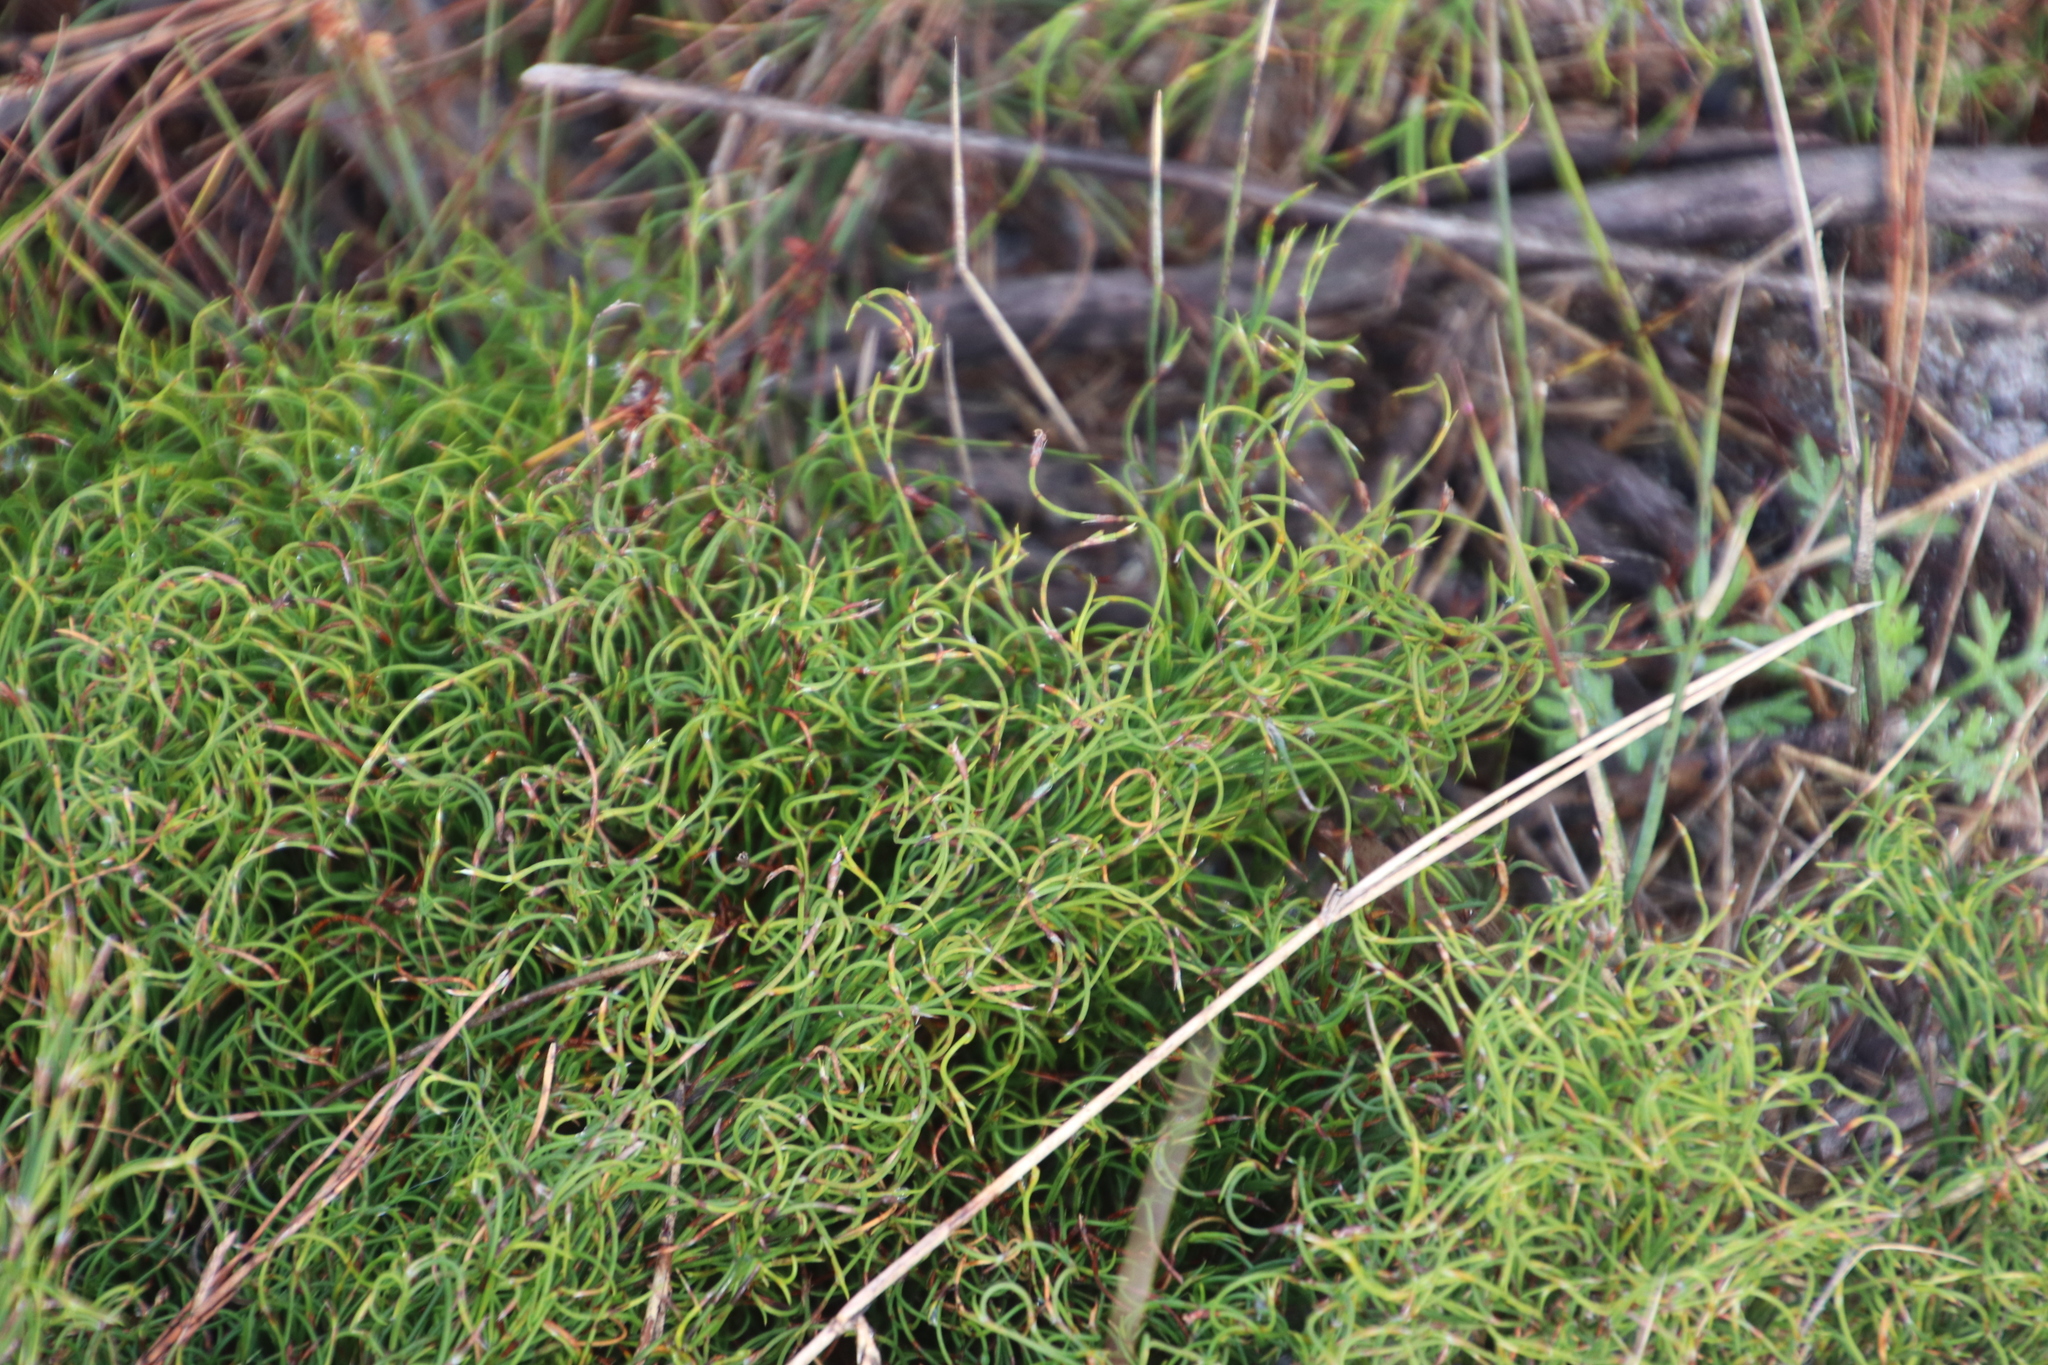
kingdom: Plantae
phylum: Tracheophyta
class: Liliopsida
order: Poales
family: Restionaceae
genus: Restio
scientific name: Restio cincinnatus
